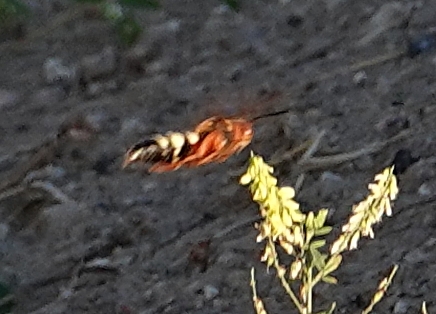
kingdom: Animalia
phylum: Arthropoda
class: Insecta
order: Hymenoptera
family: Crabronidae
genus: Sphecius
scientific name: Sphecius speciosus
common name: Cicada killer
